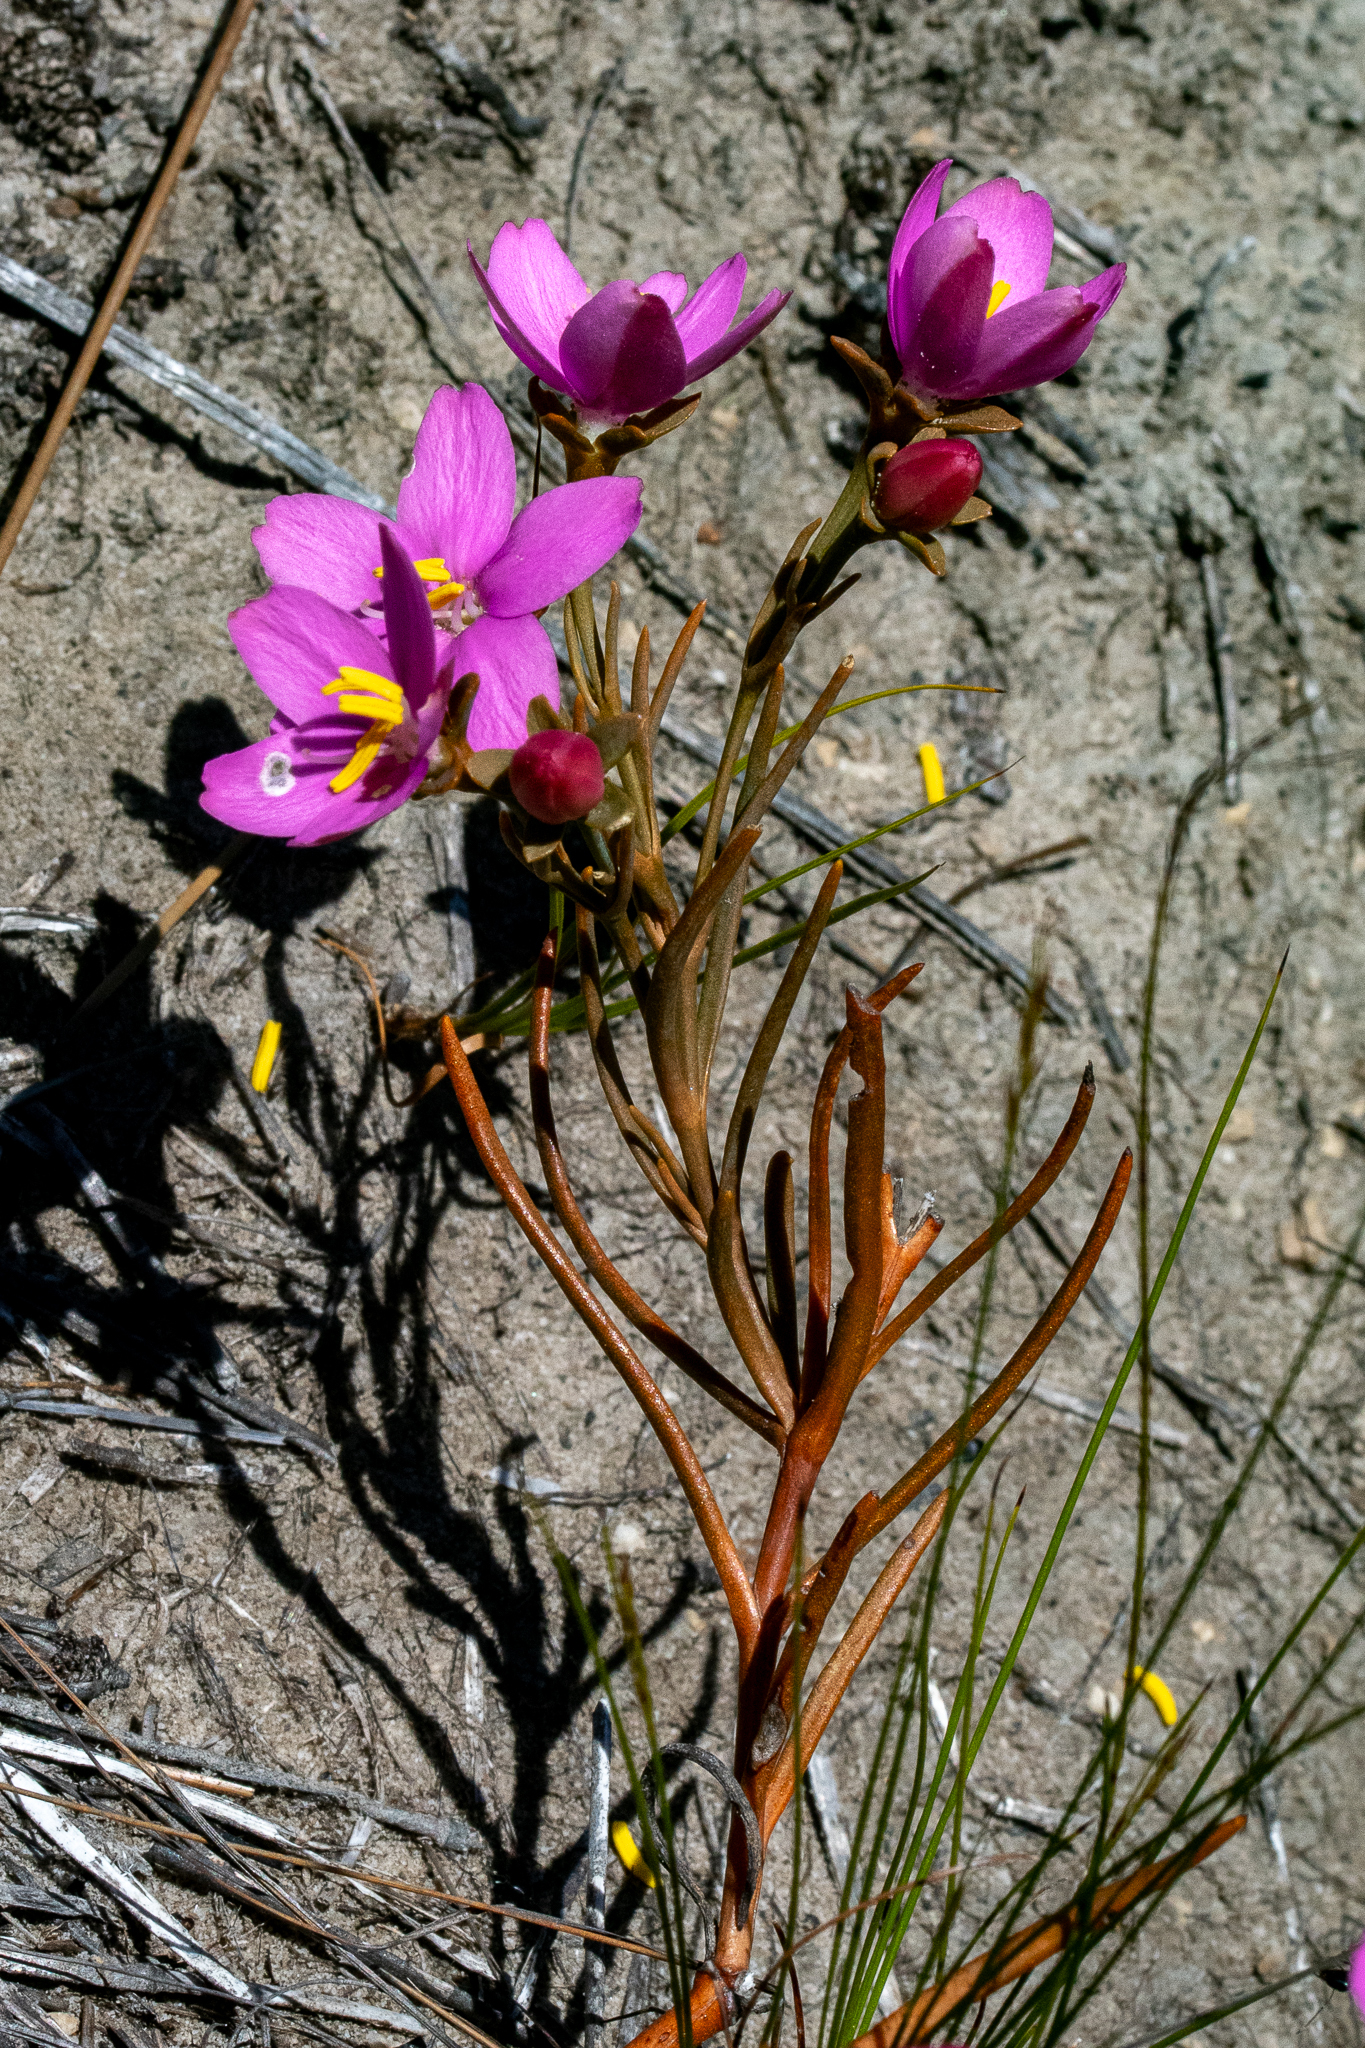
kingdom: Plantae
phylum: Tracheophyta
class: Magnoliopsida
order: Gentianales
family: Gentianaceae
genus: Chironia
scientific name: Chironia linoides
